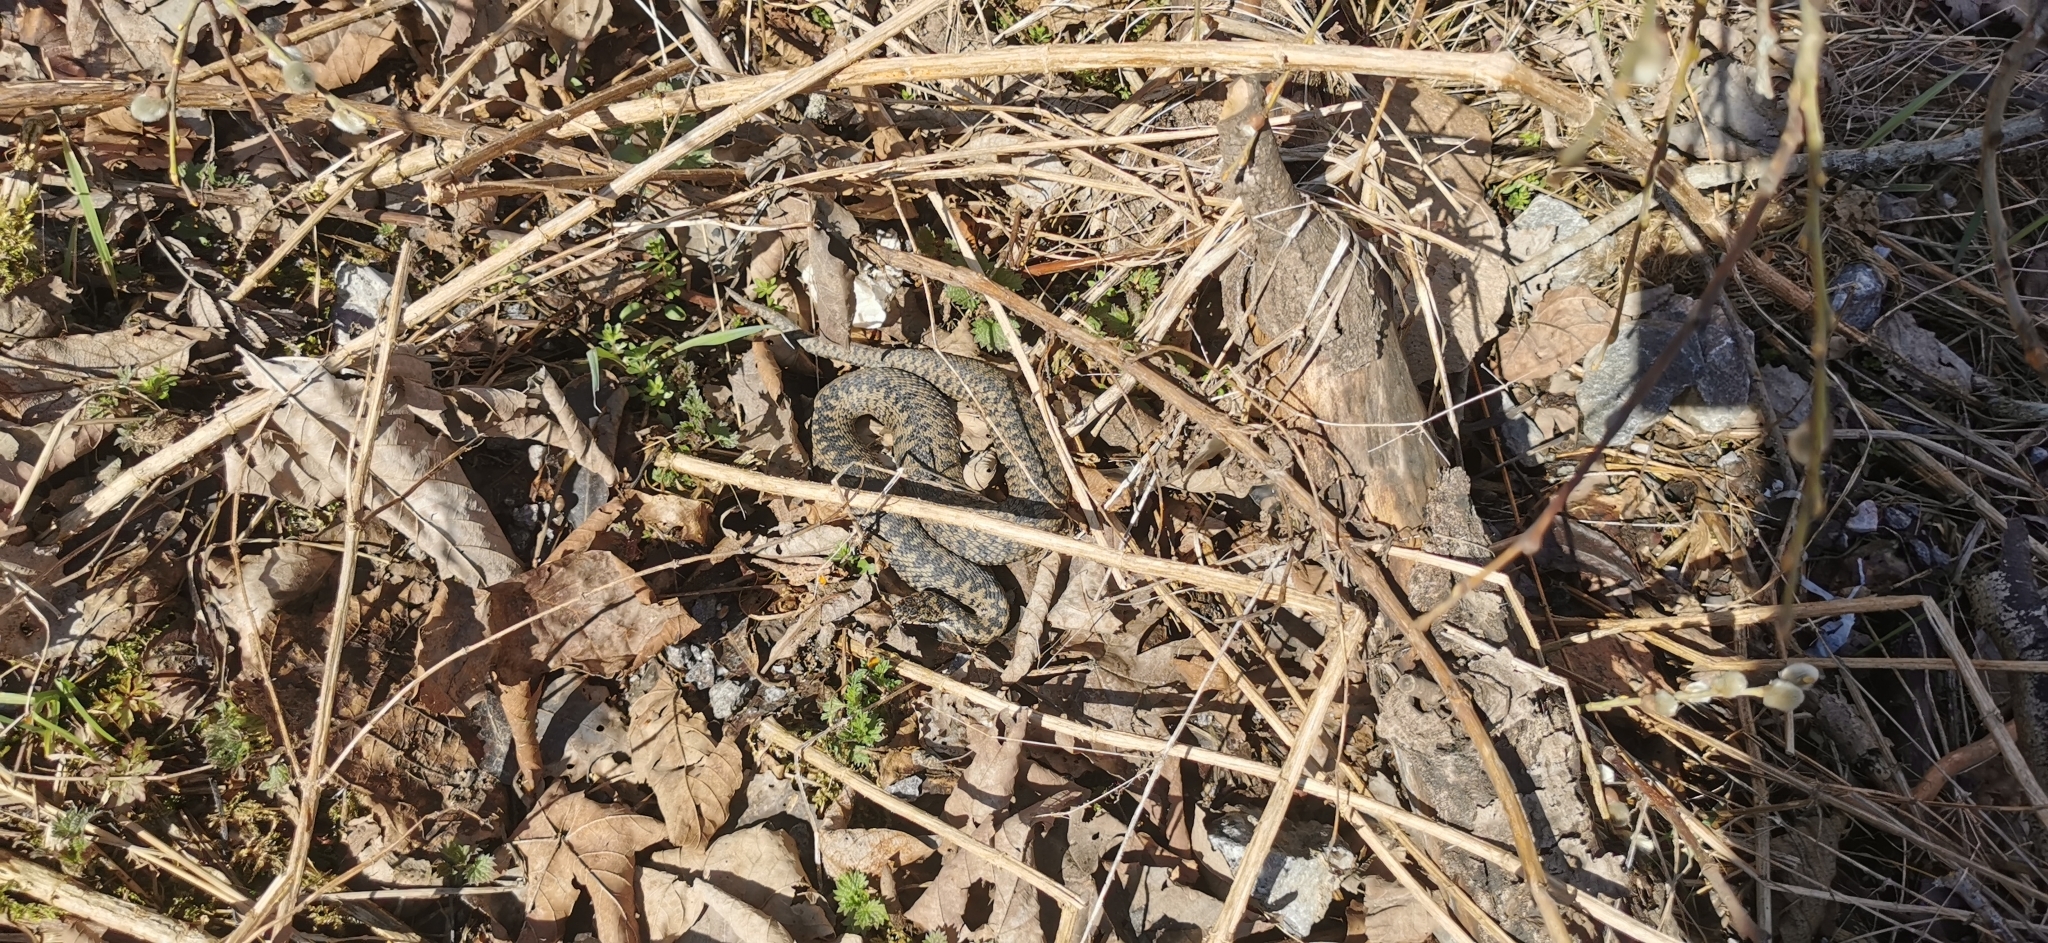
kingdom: Animalia
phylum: Chordata
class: Squamata
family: Viperidae
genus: Vipera
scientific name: Vipera berus
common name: Adder
